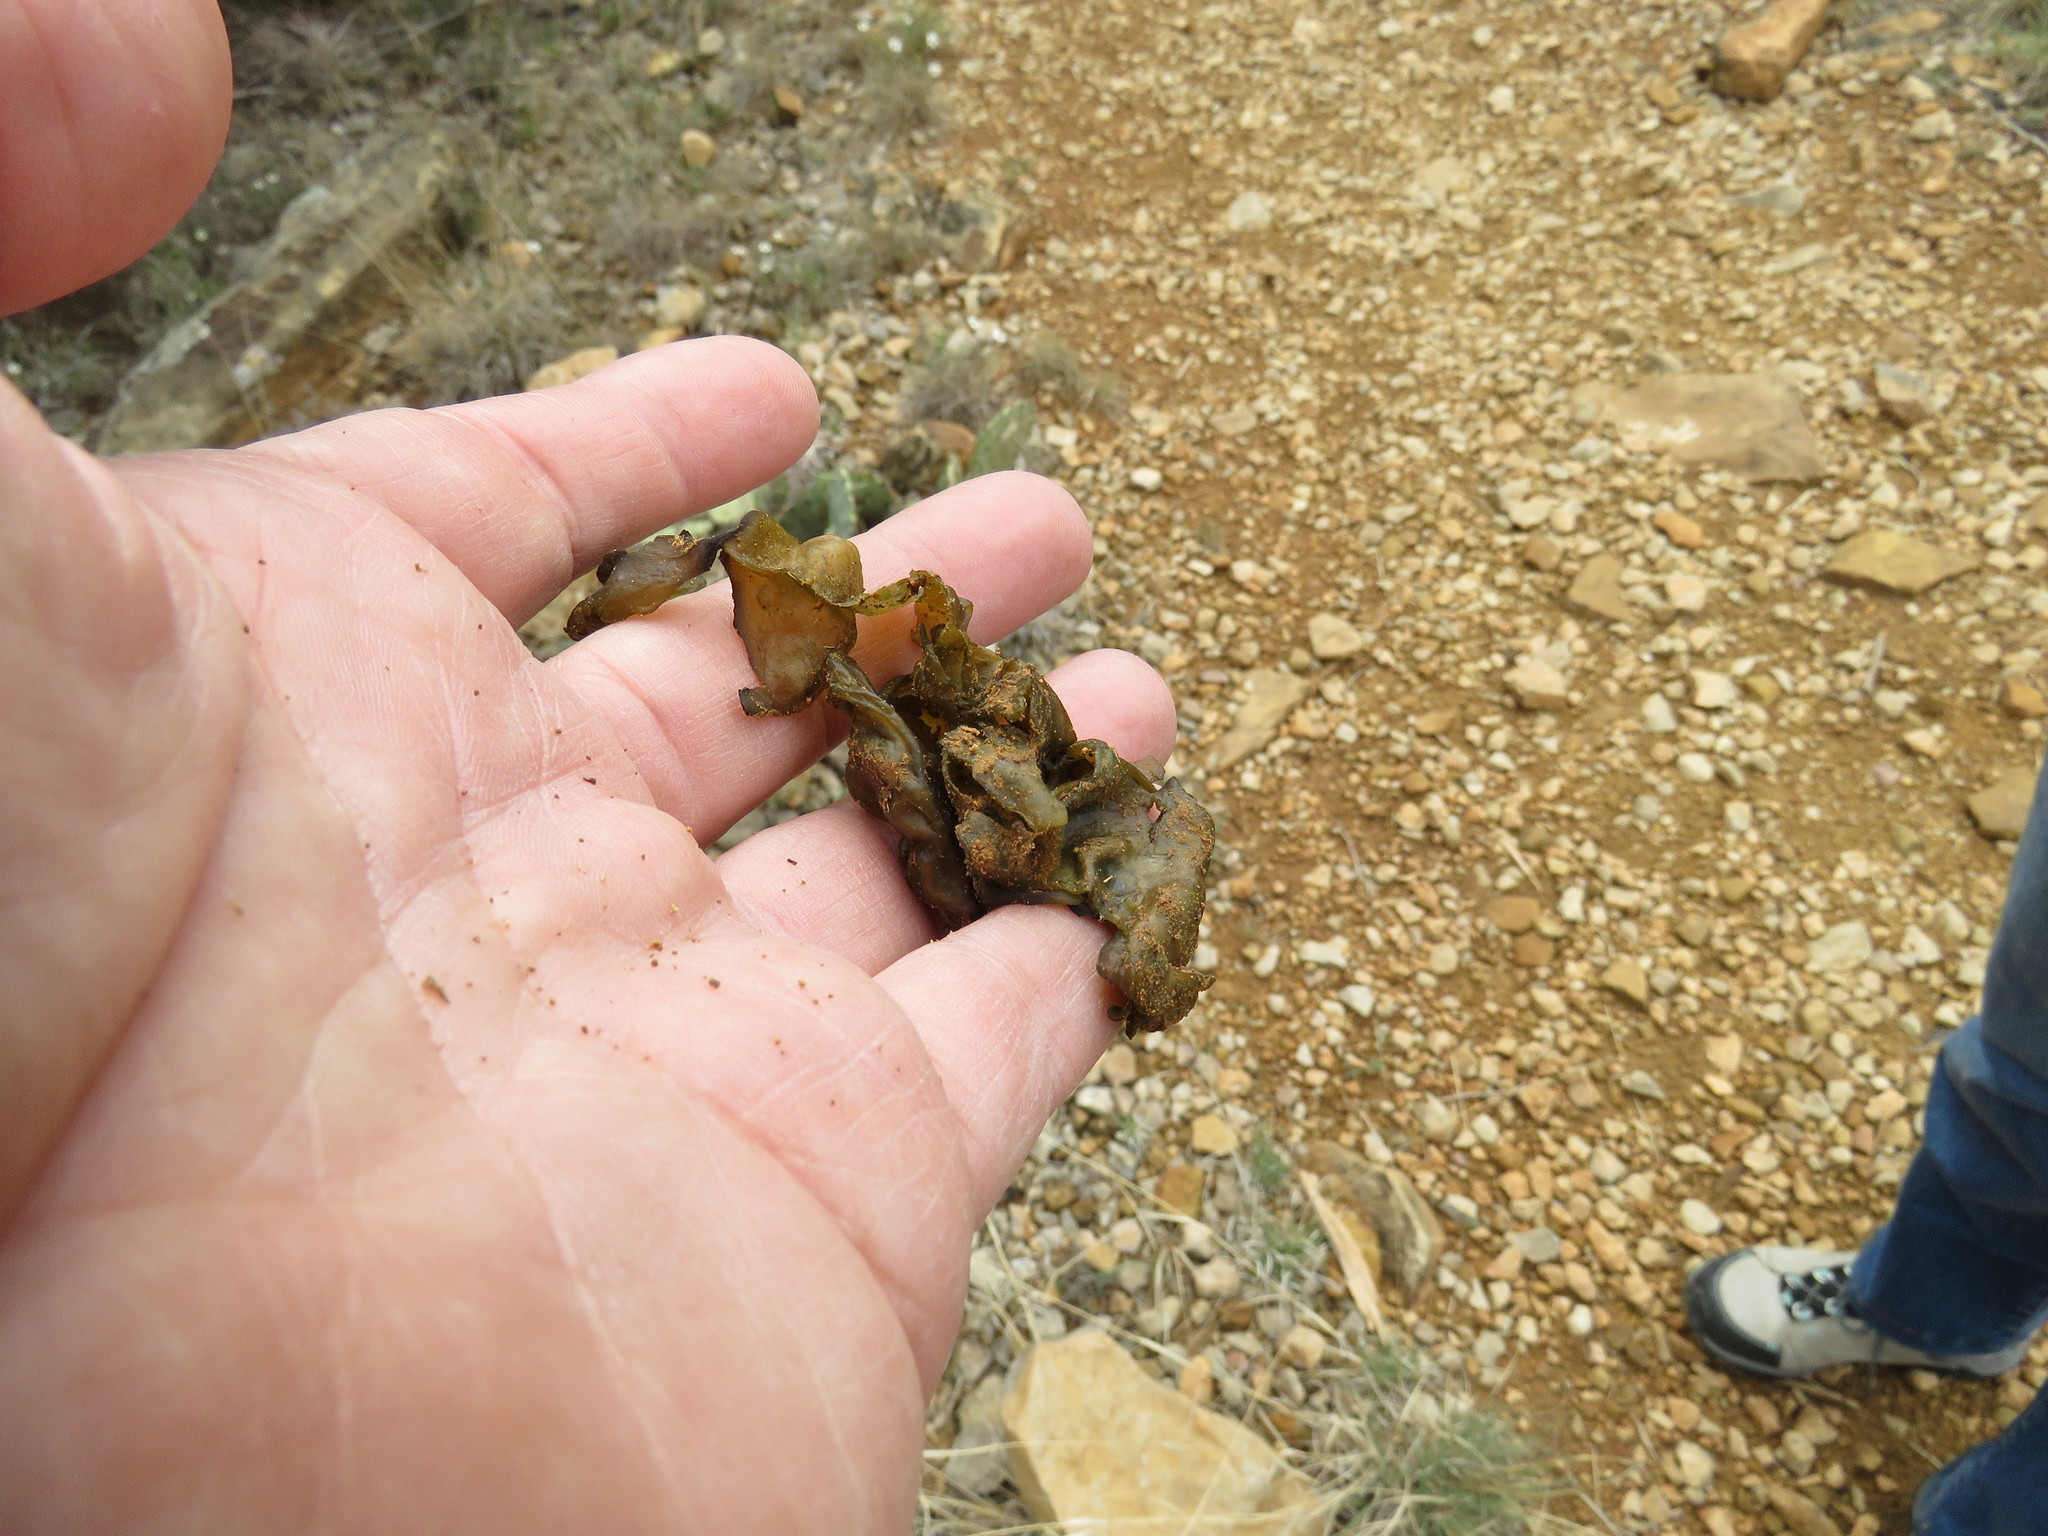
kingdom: Bacteria
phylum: Cyanobacteria
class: Cyanobacteriia
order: Cyanobacteriales
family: Nostocaceae
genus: Nostoc
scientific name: Nostoc commune
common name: Star jelly
